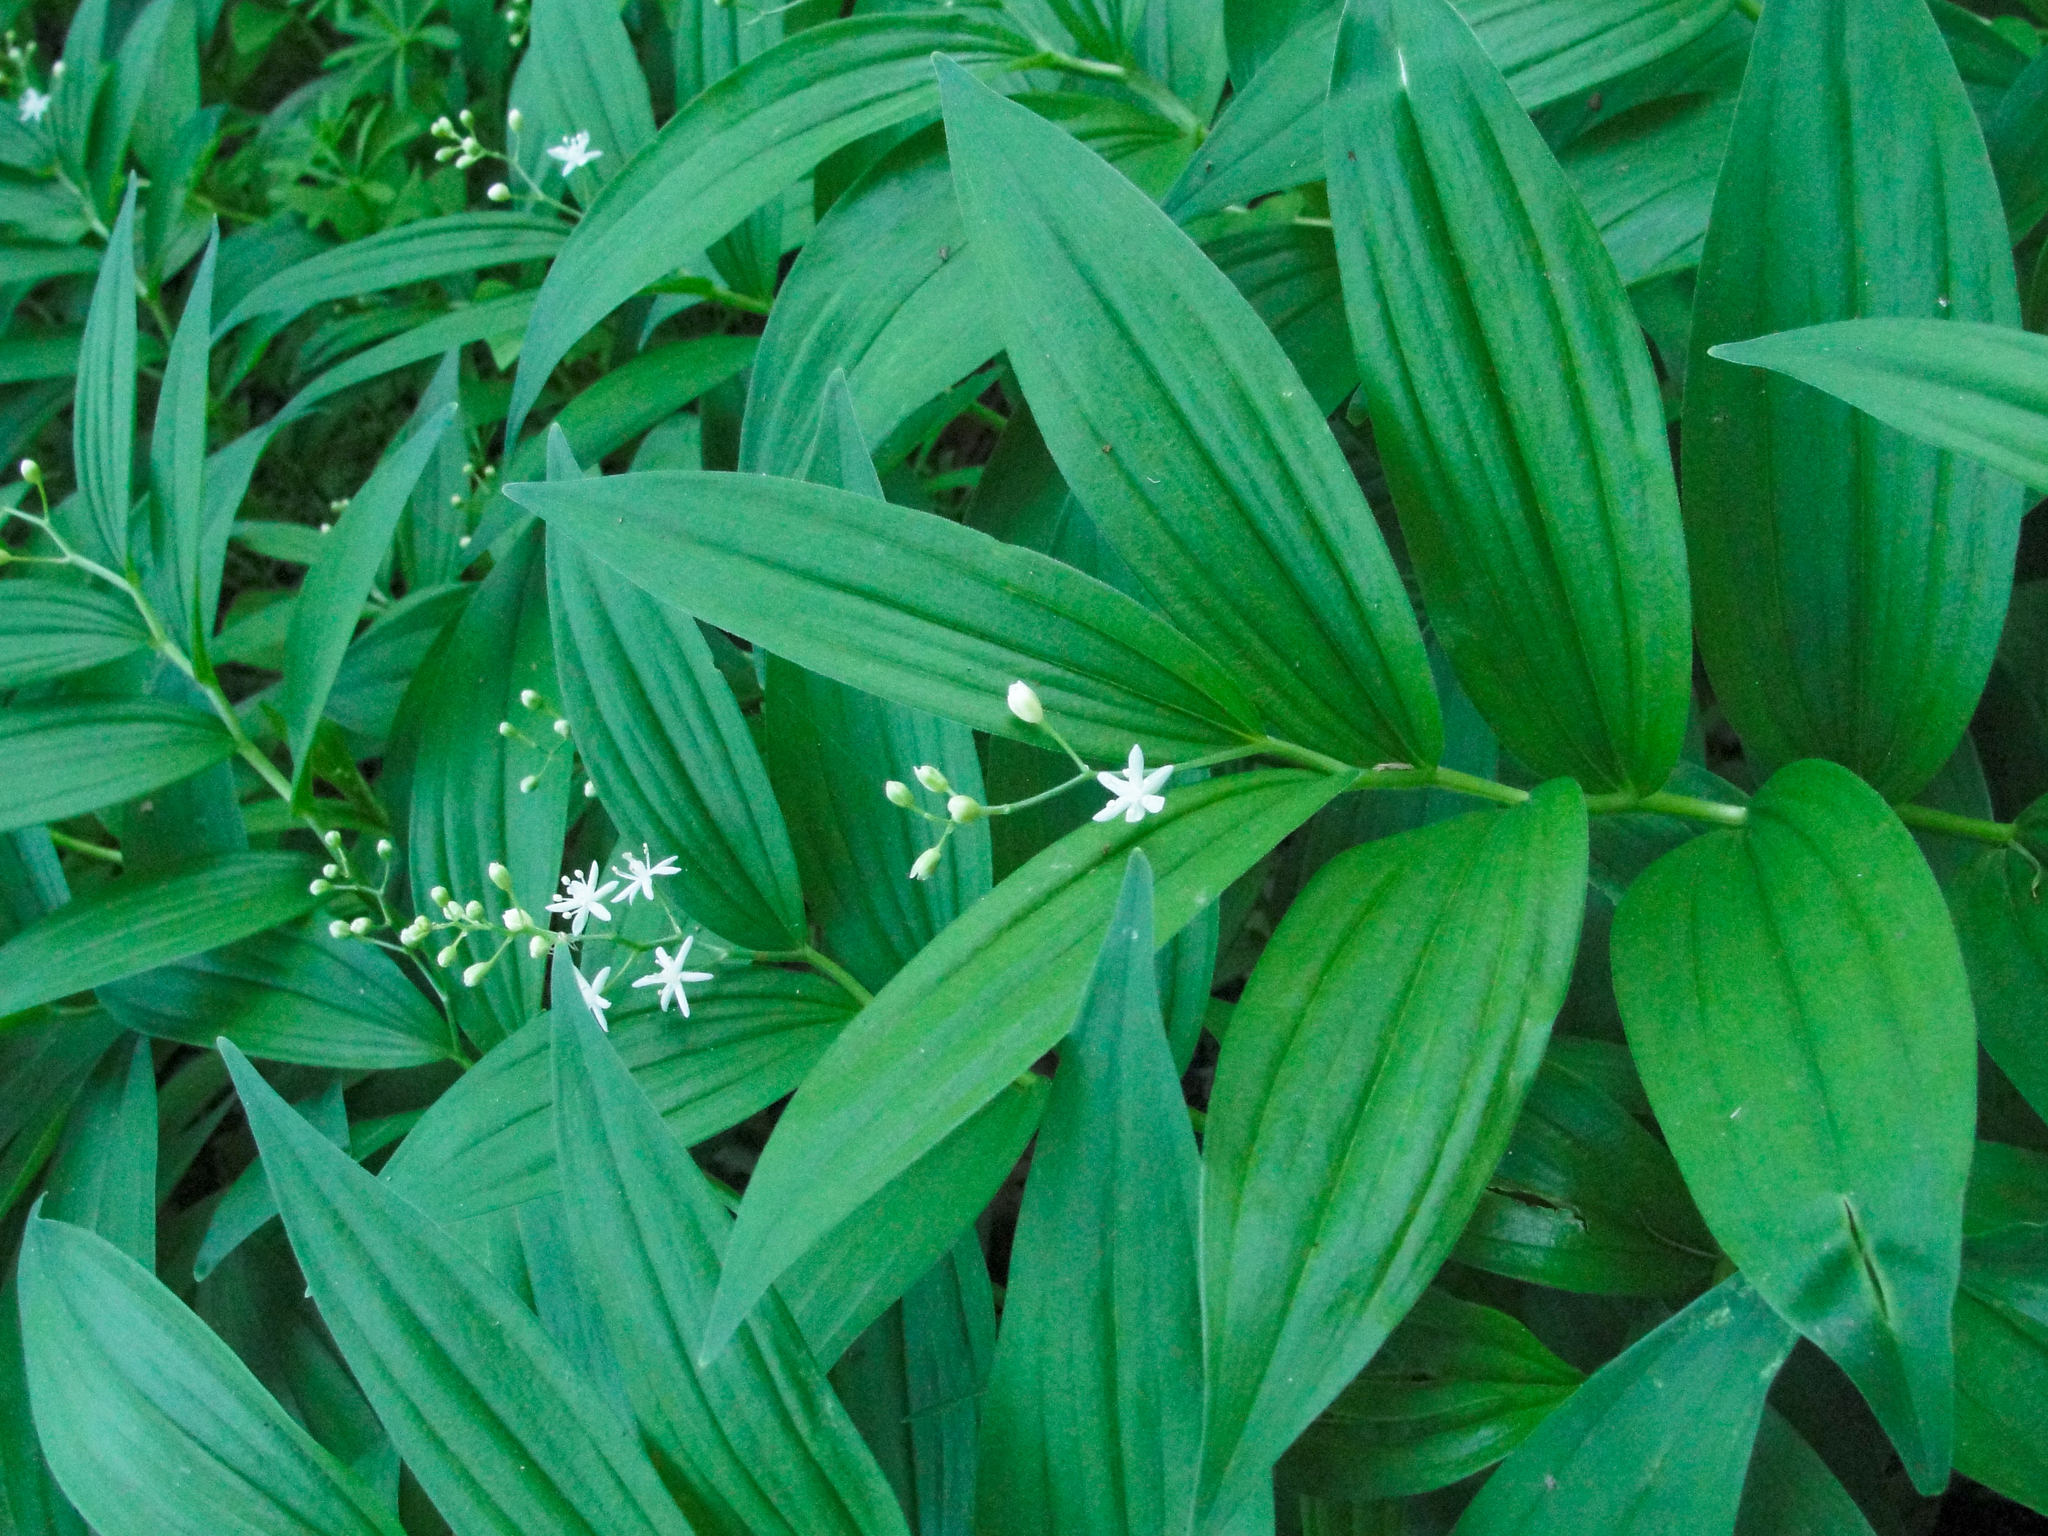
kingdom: Plantae
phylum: Tracheophyta
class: Liliopsida
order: Asparagales
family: Asparagaceae
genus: Maianthemum
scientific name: Maianthemum stellatum
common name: Little false solomon's seal
